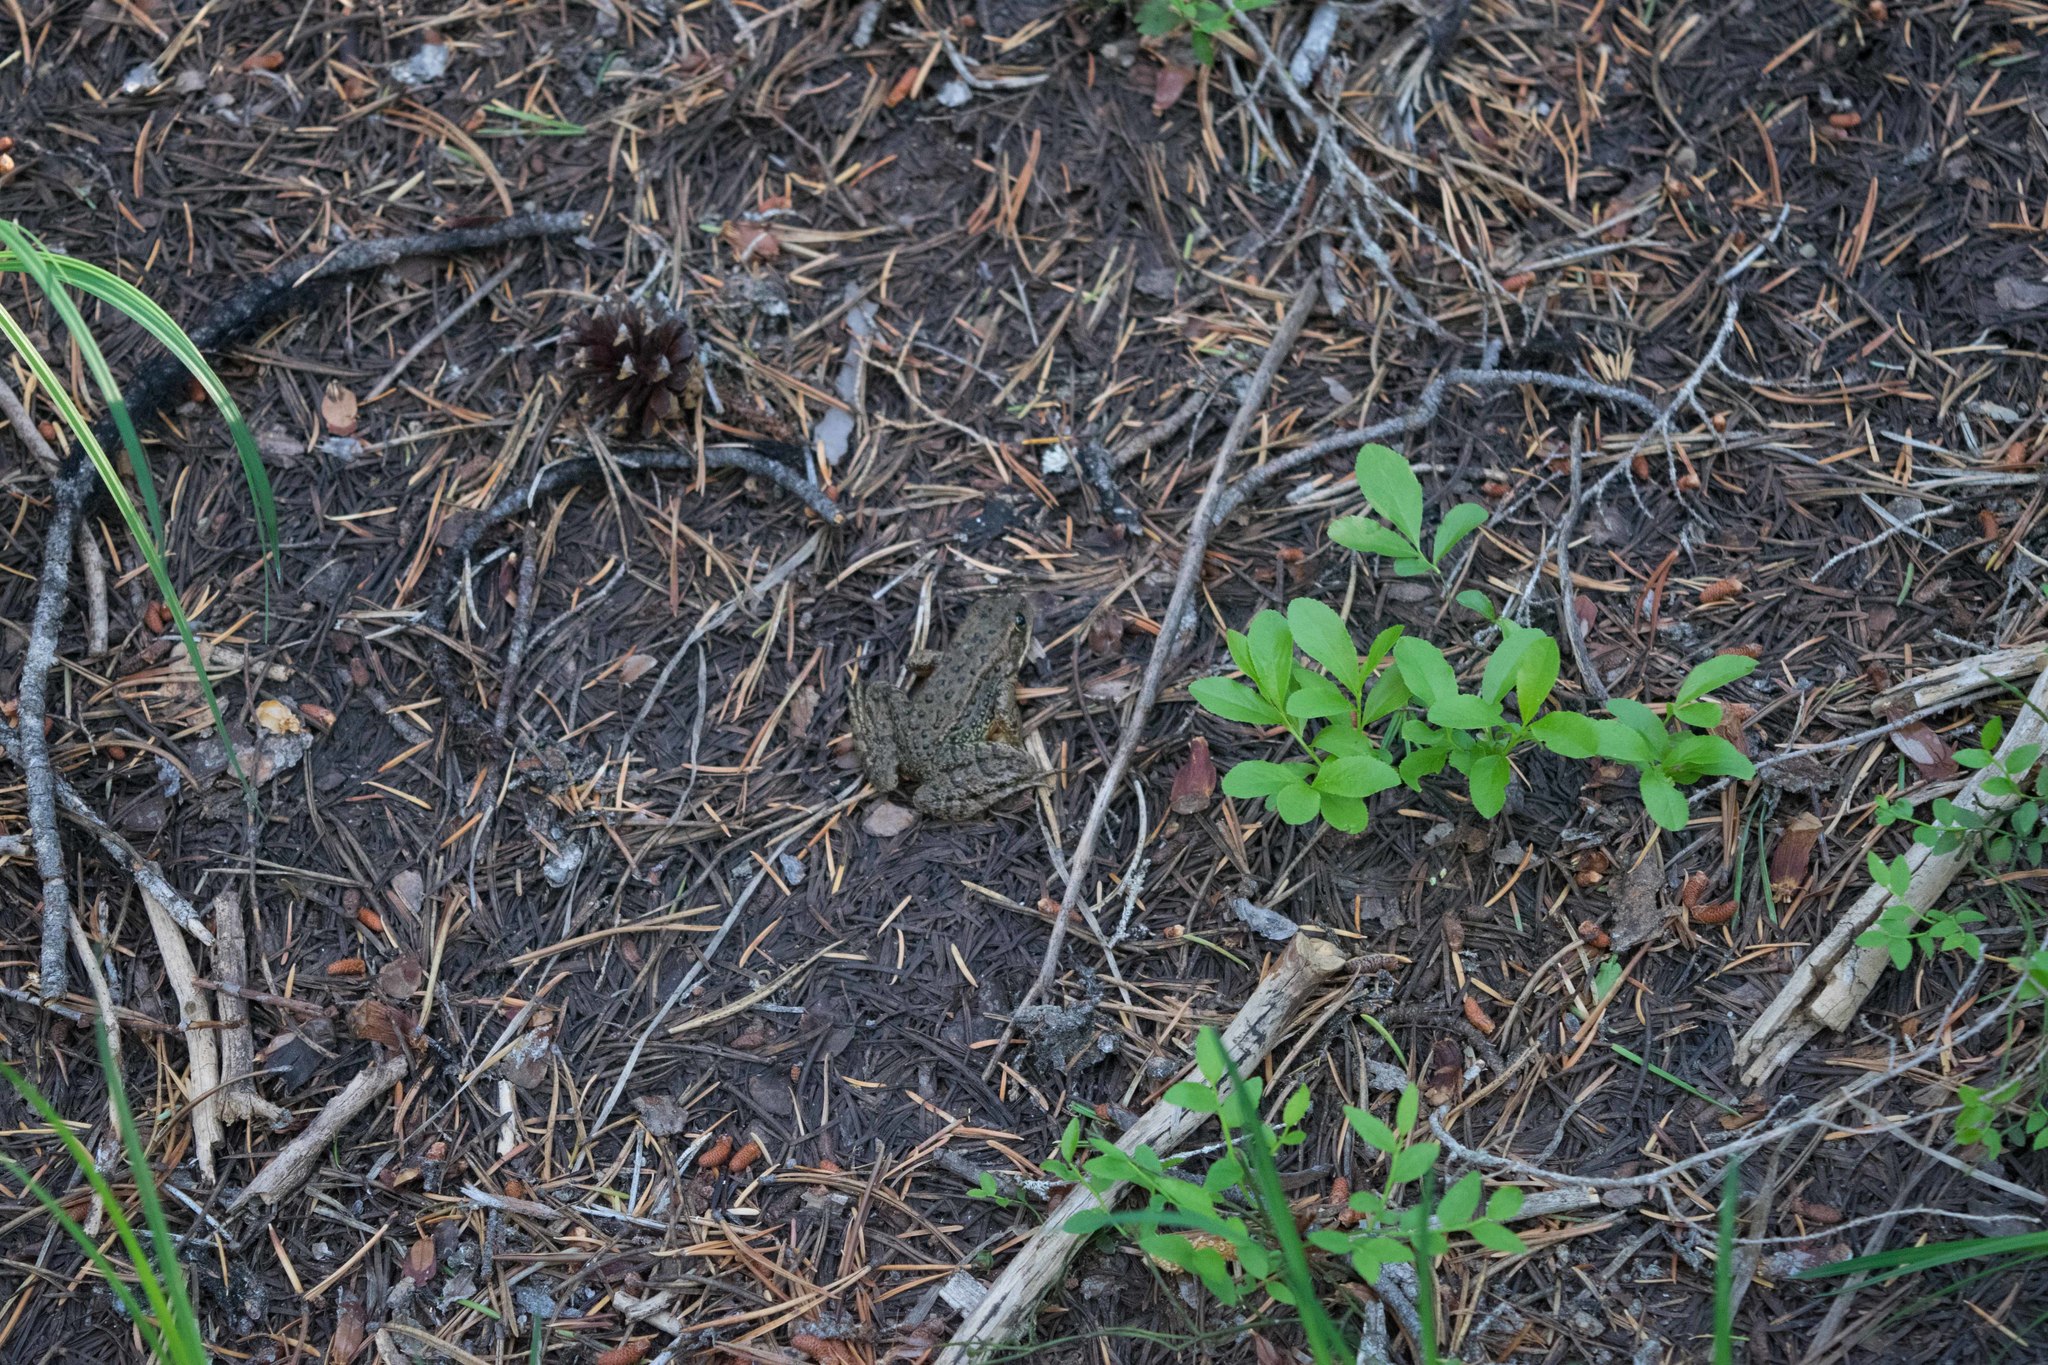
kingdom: Animalia
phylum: Chordata
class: Amphibia
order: Anura
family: Ranidae
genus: Rana
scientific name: Rana cascadae
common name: Cascades frog
